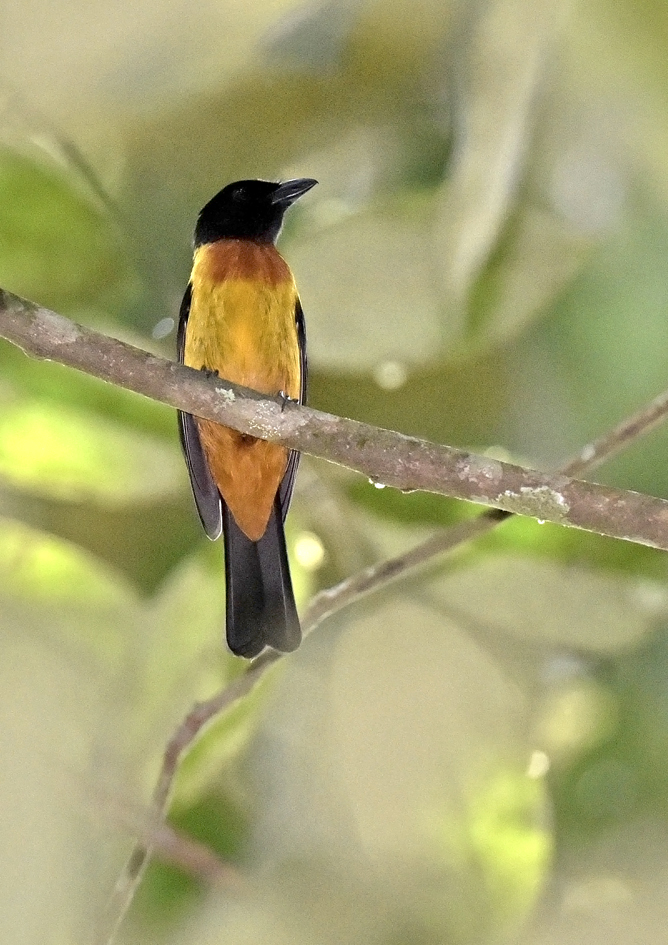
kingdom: Animalia
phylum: Chordata
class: Aves
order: Passeriformes
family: Thraupidae
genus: Lanio
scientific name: Lanio fulvus
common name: Fulvous shrike-tanager
